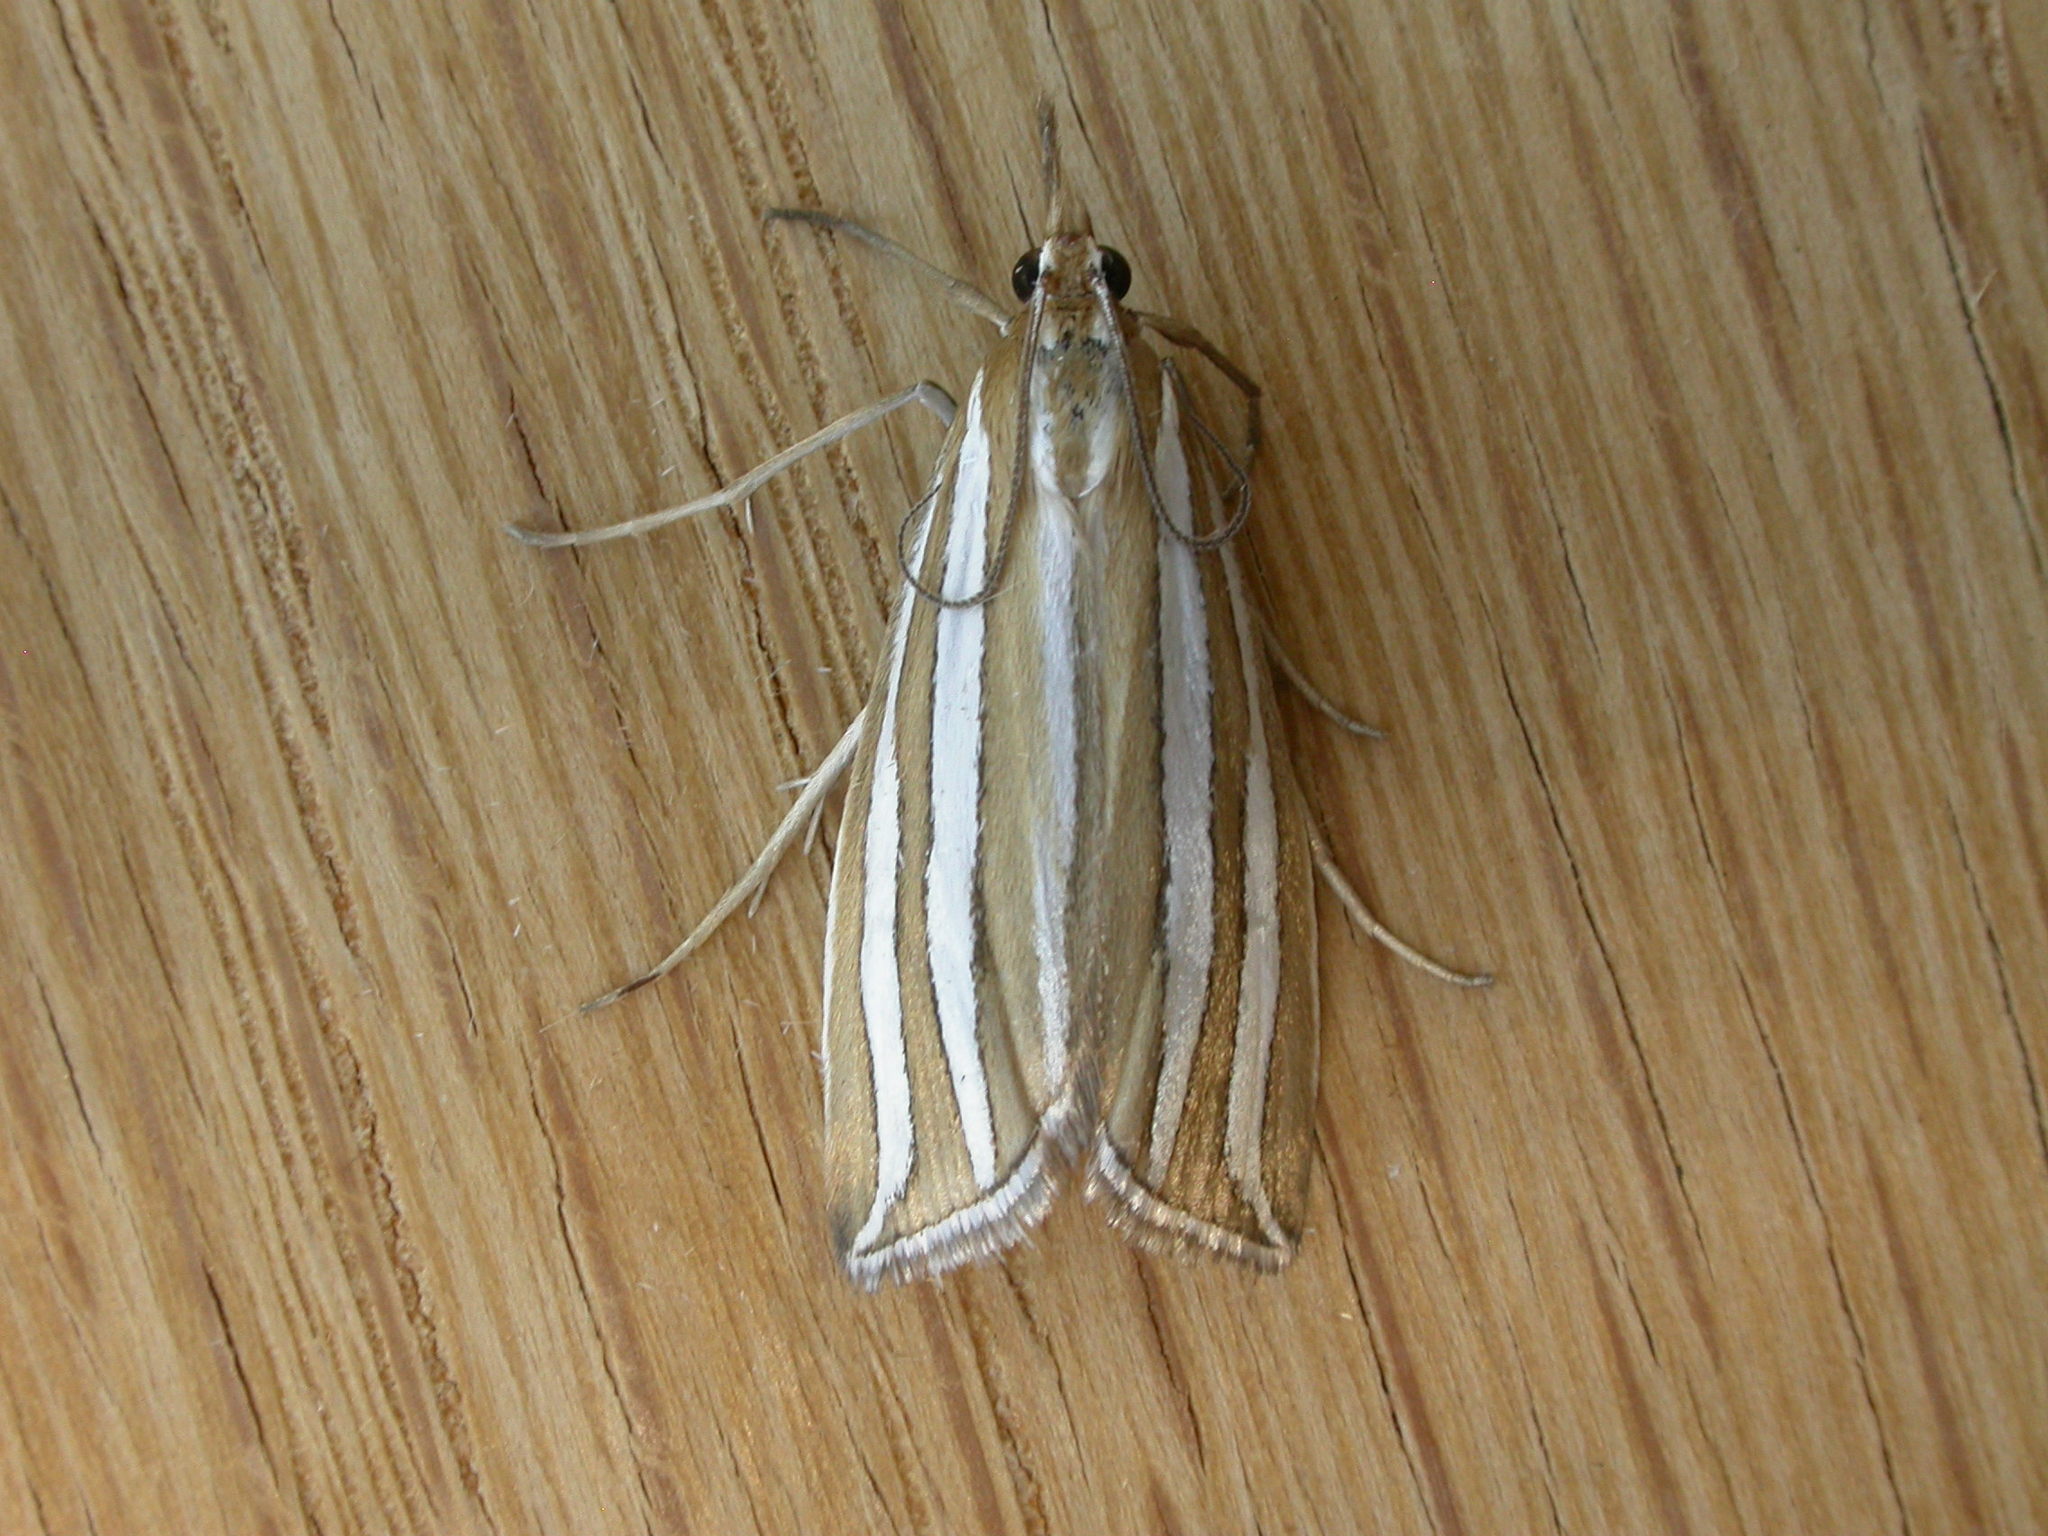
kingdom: Animalia
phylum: Arthropoda
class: Insecta
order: Lepidoptera
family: Crambidae
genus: Hednota
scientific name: Hednota bivittella
